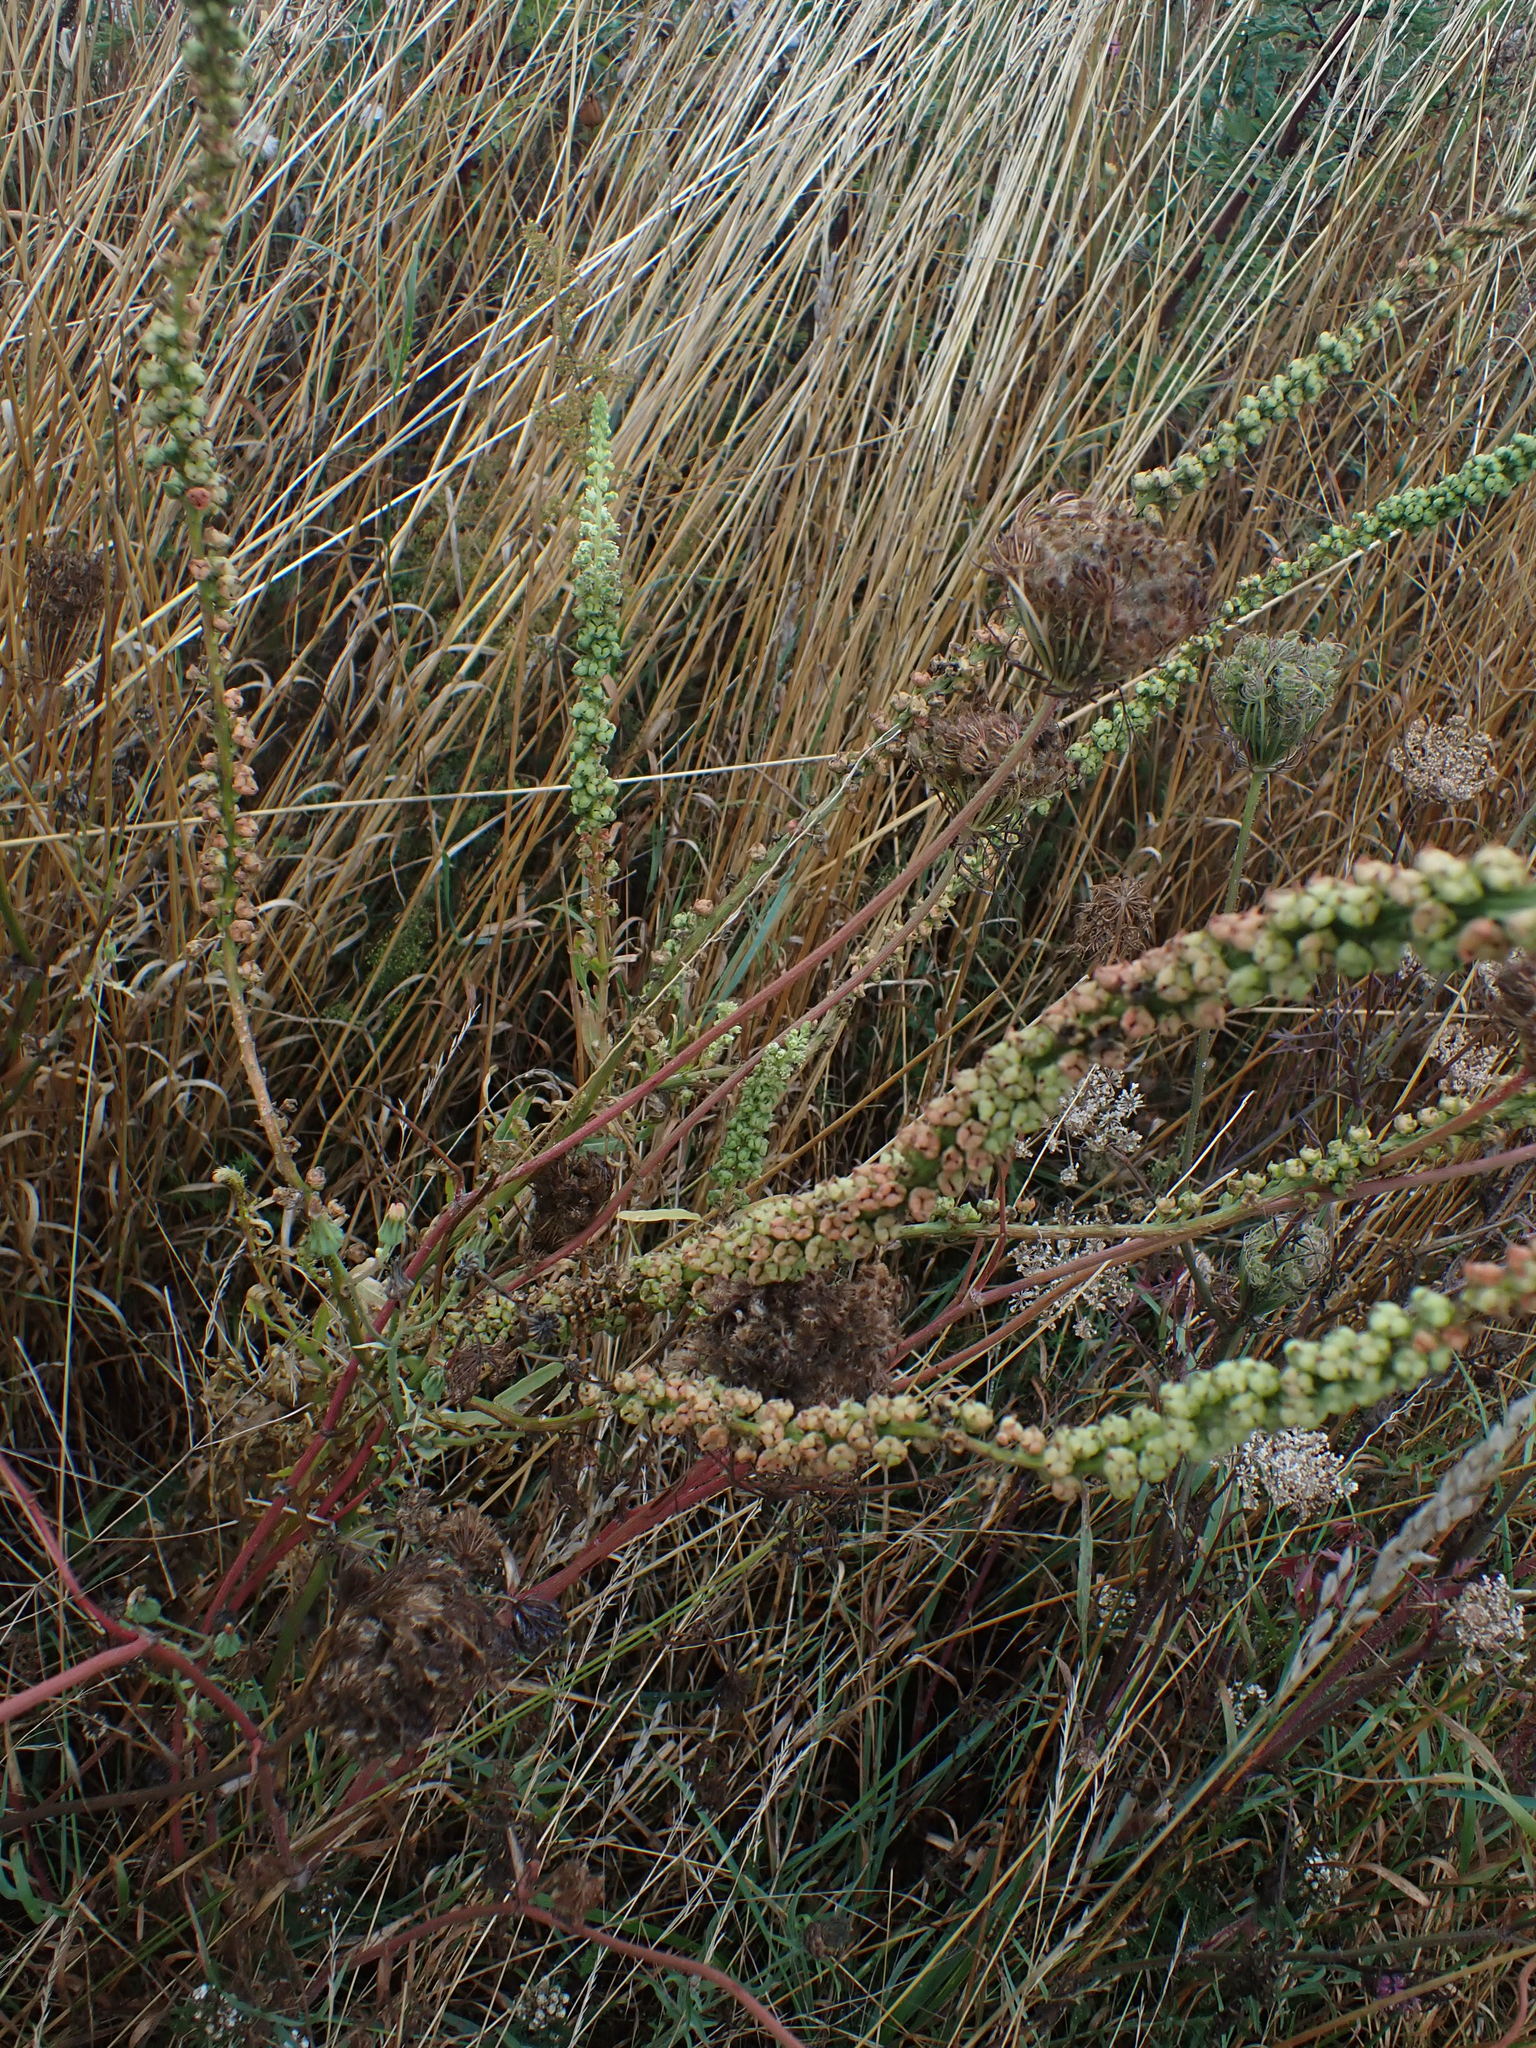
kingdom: Plantae
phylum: Tracheophyta
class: Magnoliopsida
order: Brassicales
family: Resedaceae
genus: Reseda
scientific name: Reseda luteola
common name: Weld
